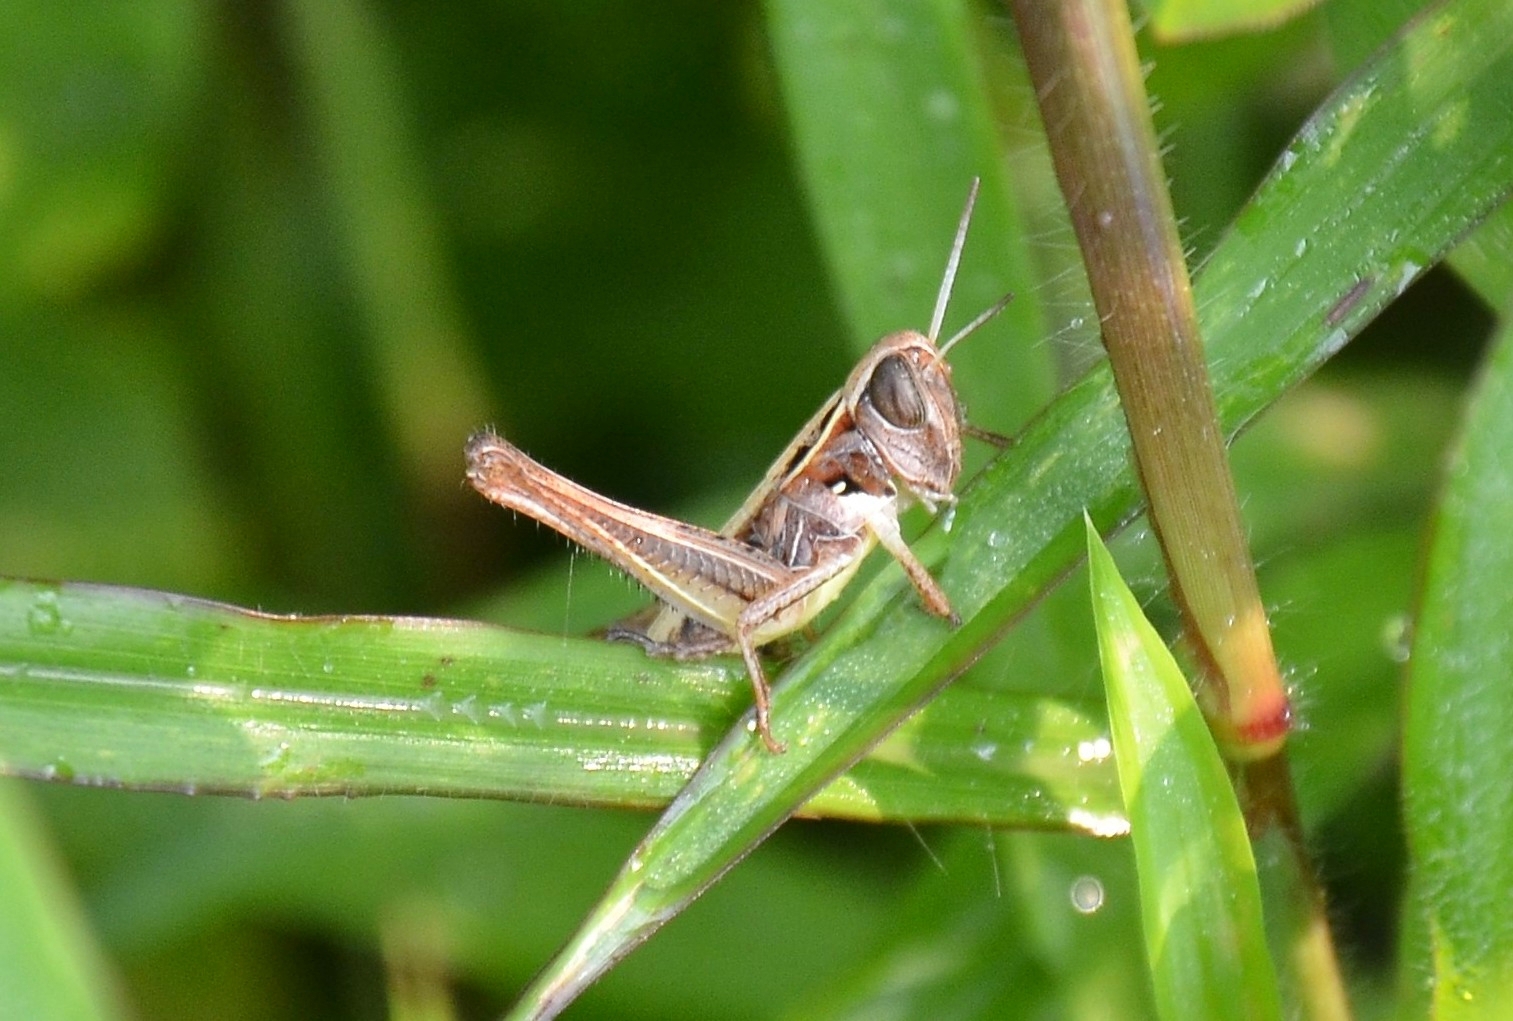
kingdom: Animalia
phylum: Arthropoda
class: Insecta
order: Orthoptera
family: Acrididae
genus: Tylotropidius
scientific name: Tylotropidius varicornis
